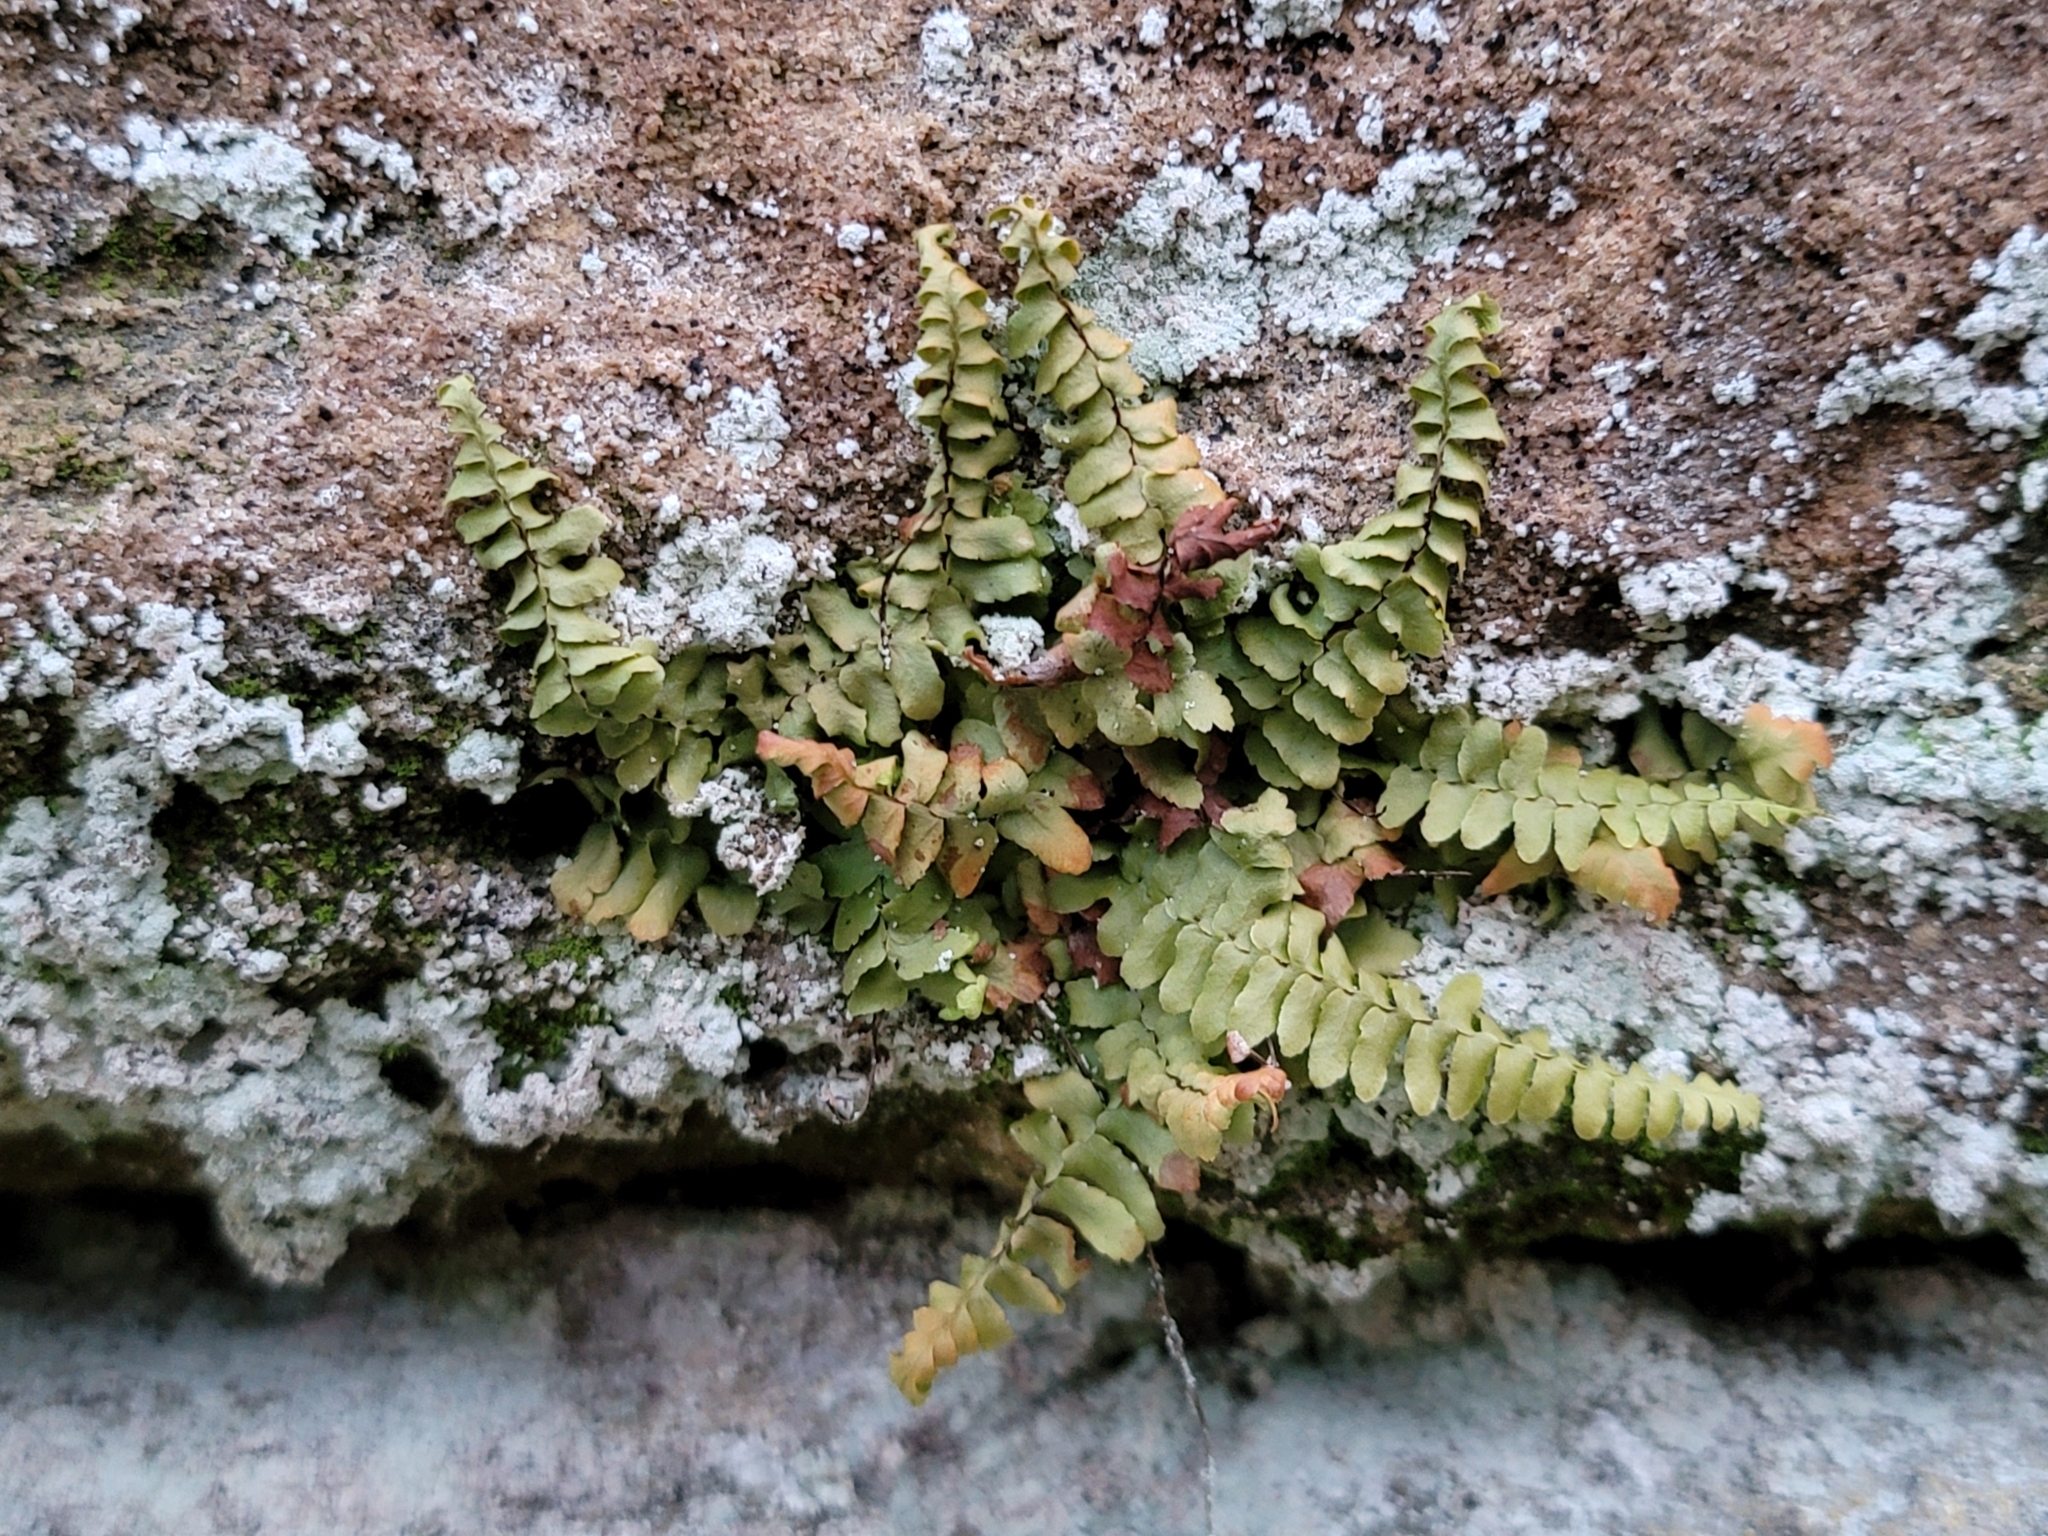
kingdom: Plantae
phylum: Tracheophyta
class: Polypodiopsida
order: Polypodiales
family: Aspleniaceae
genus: Asplenium
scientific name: Asplenium platyneuron
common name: Ebony spleenwort
